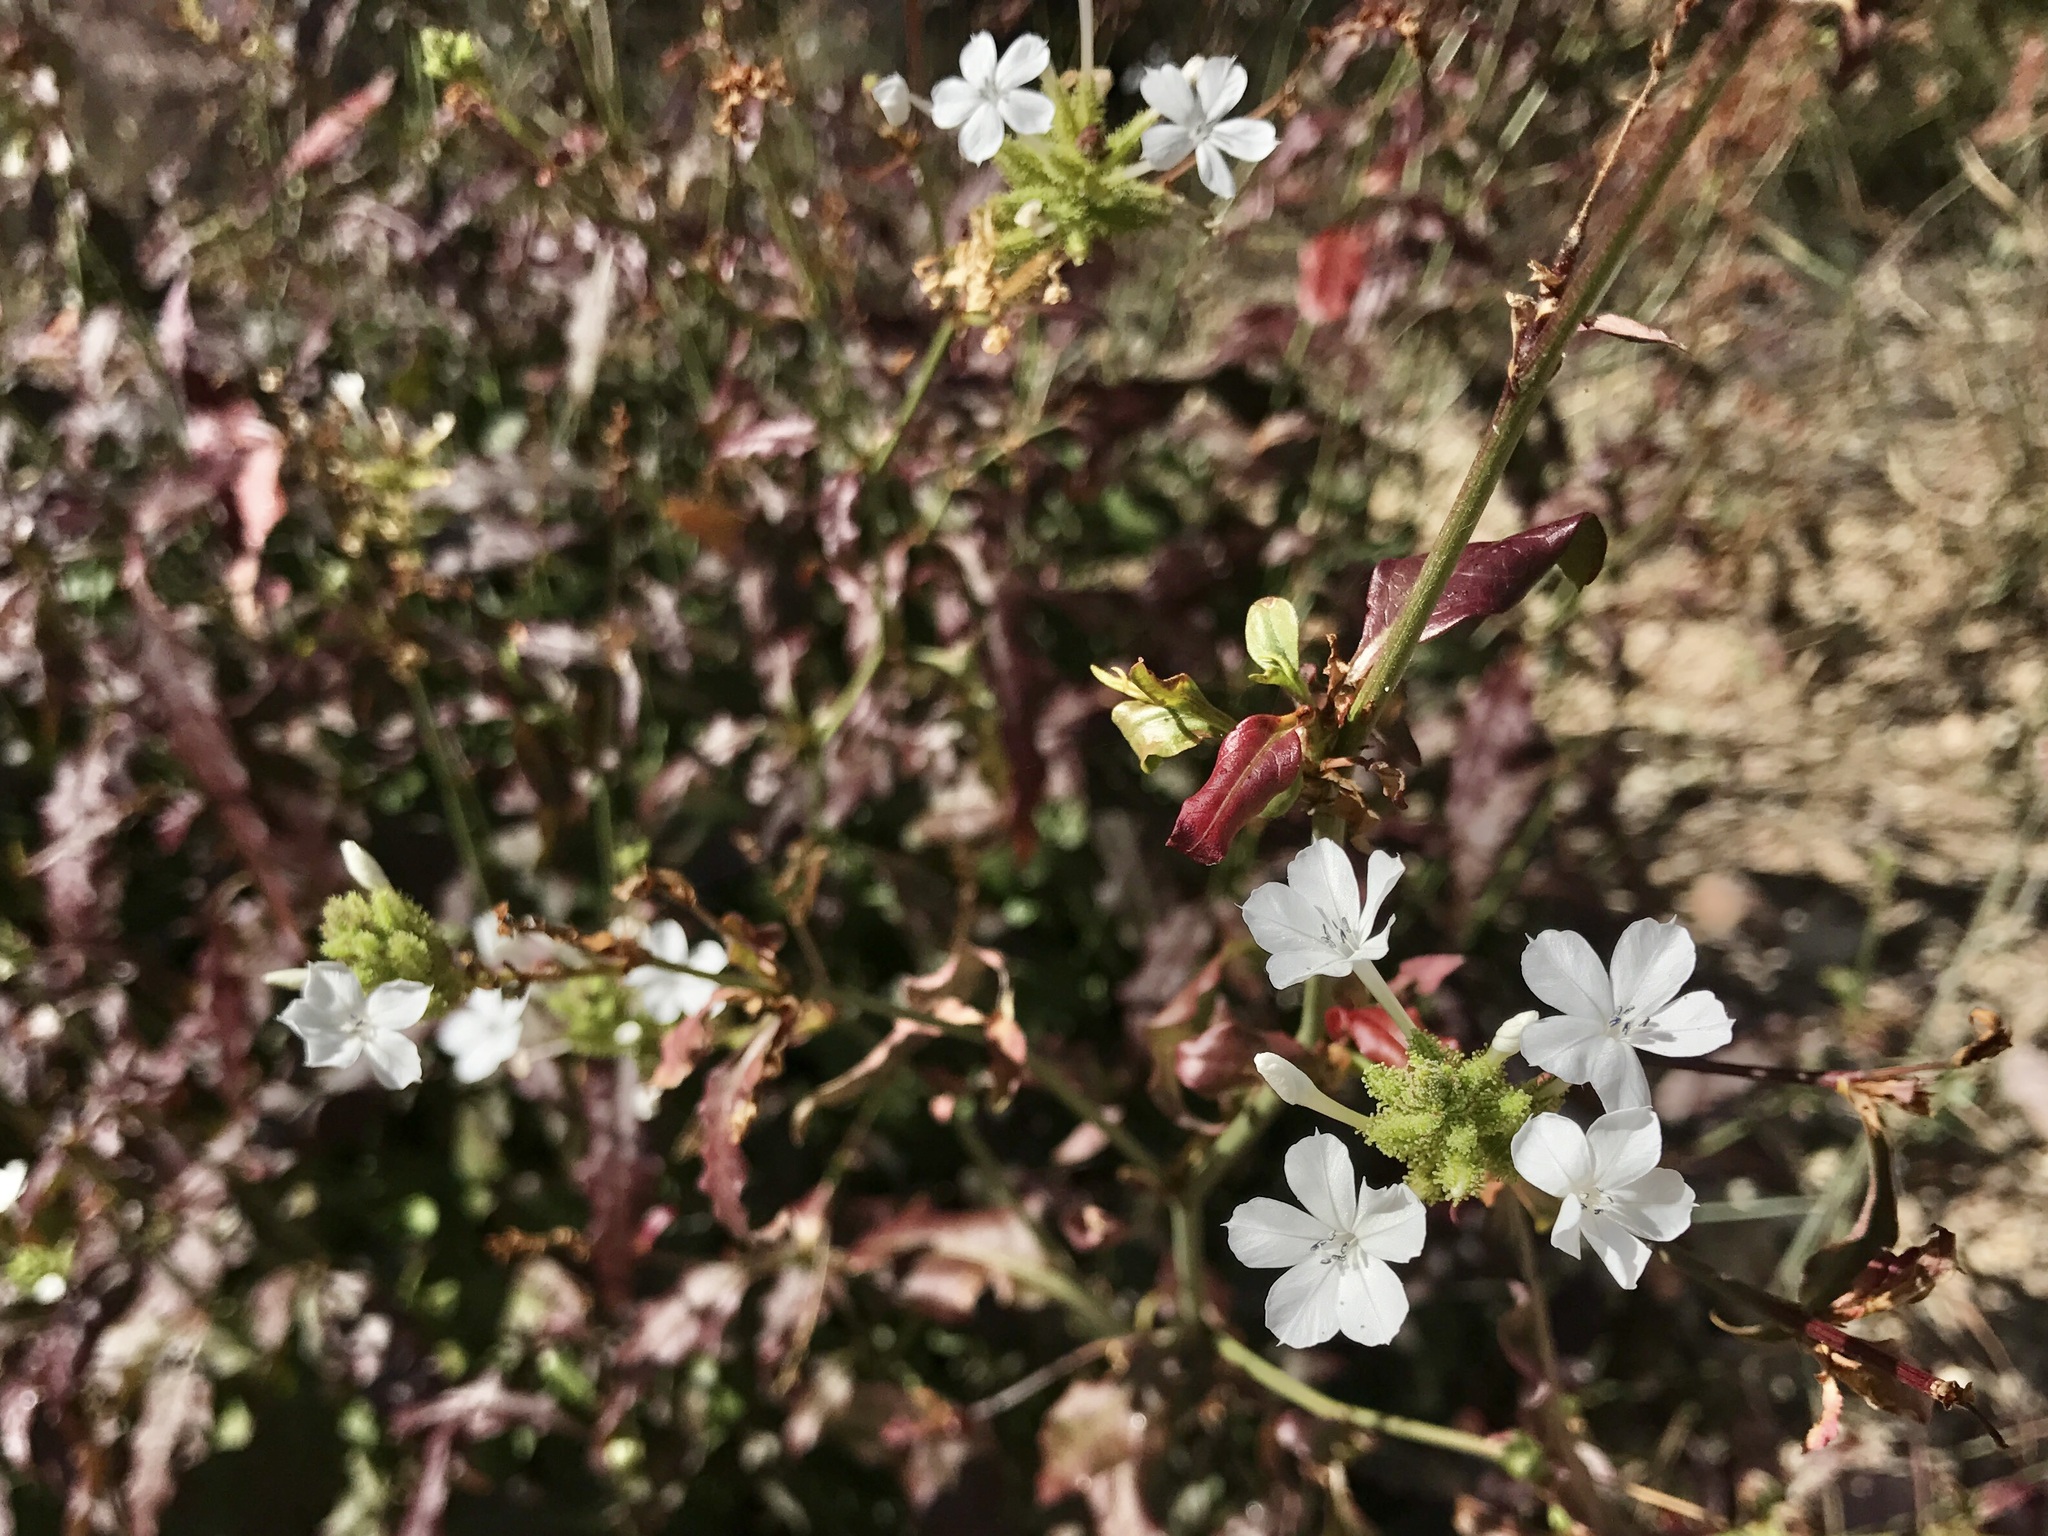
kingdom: Plantae
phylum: Tracheophyta
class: Magnoliopsida
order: Caryophyllales
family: Plumbaginaceae
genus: Plumbago
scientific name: Plumbago zeylanica
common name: Doctorbush
